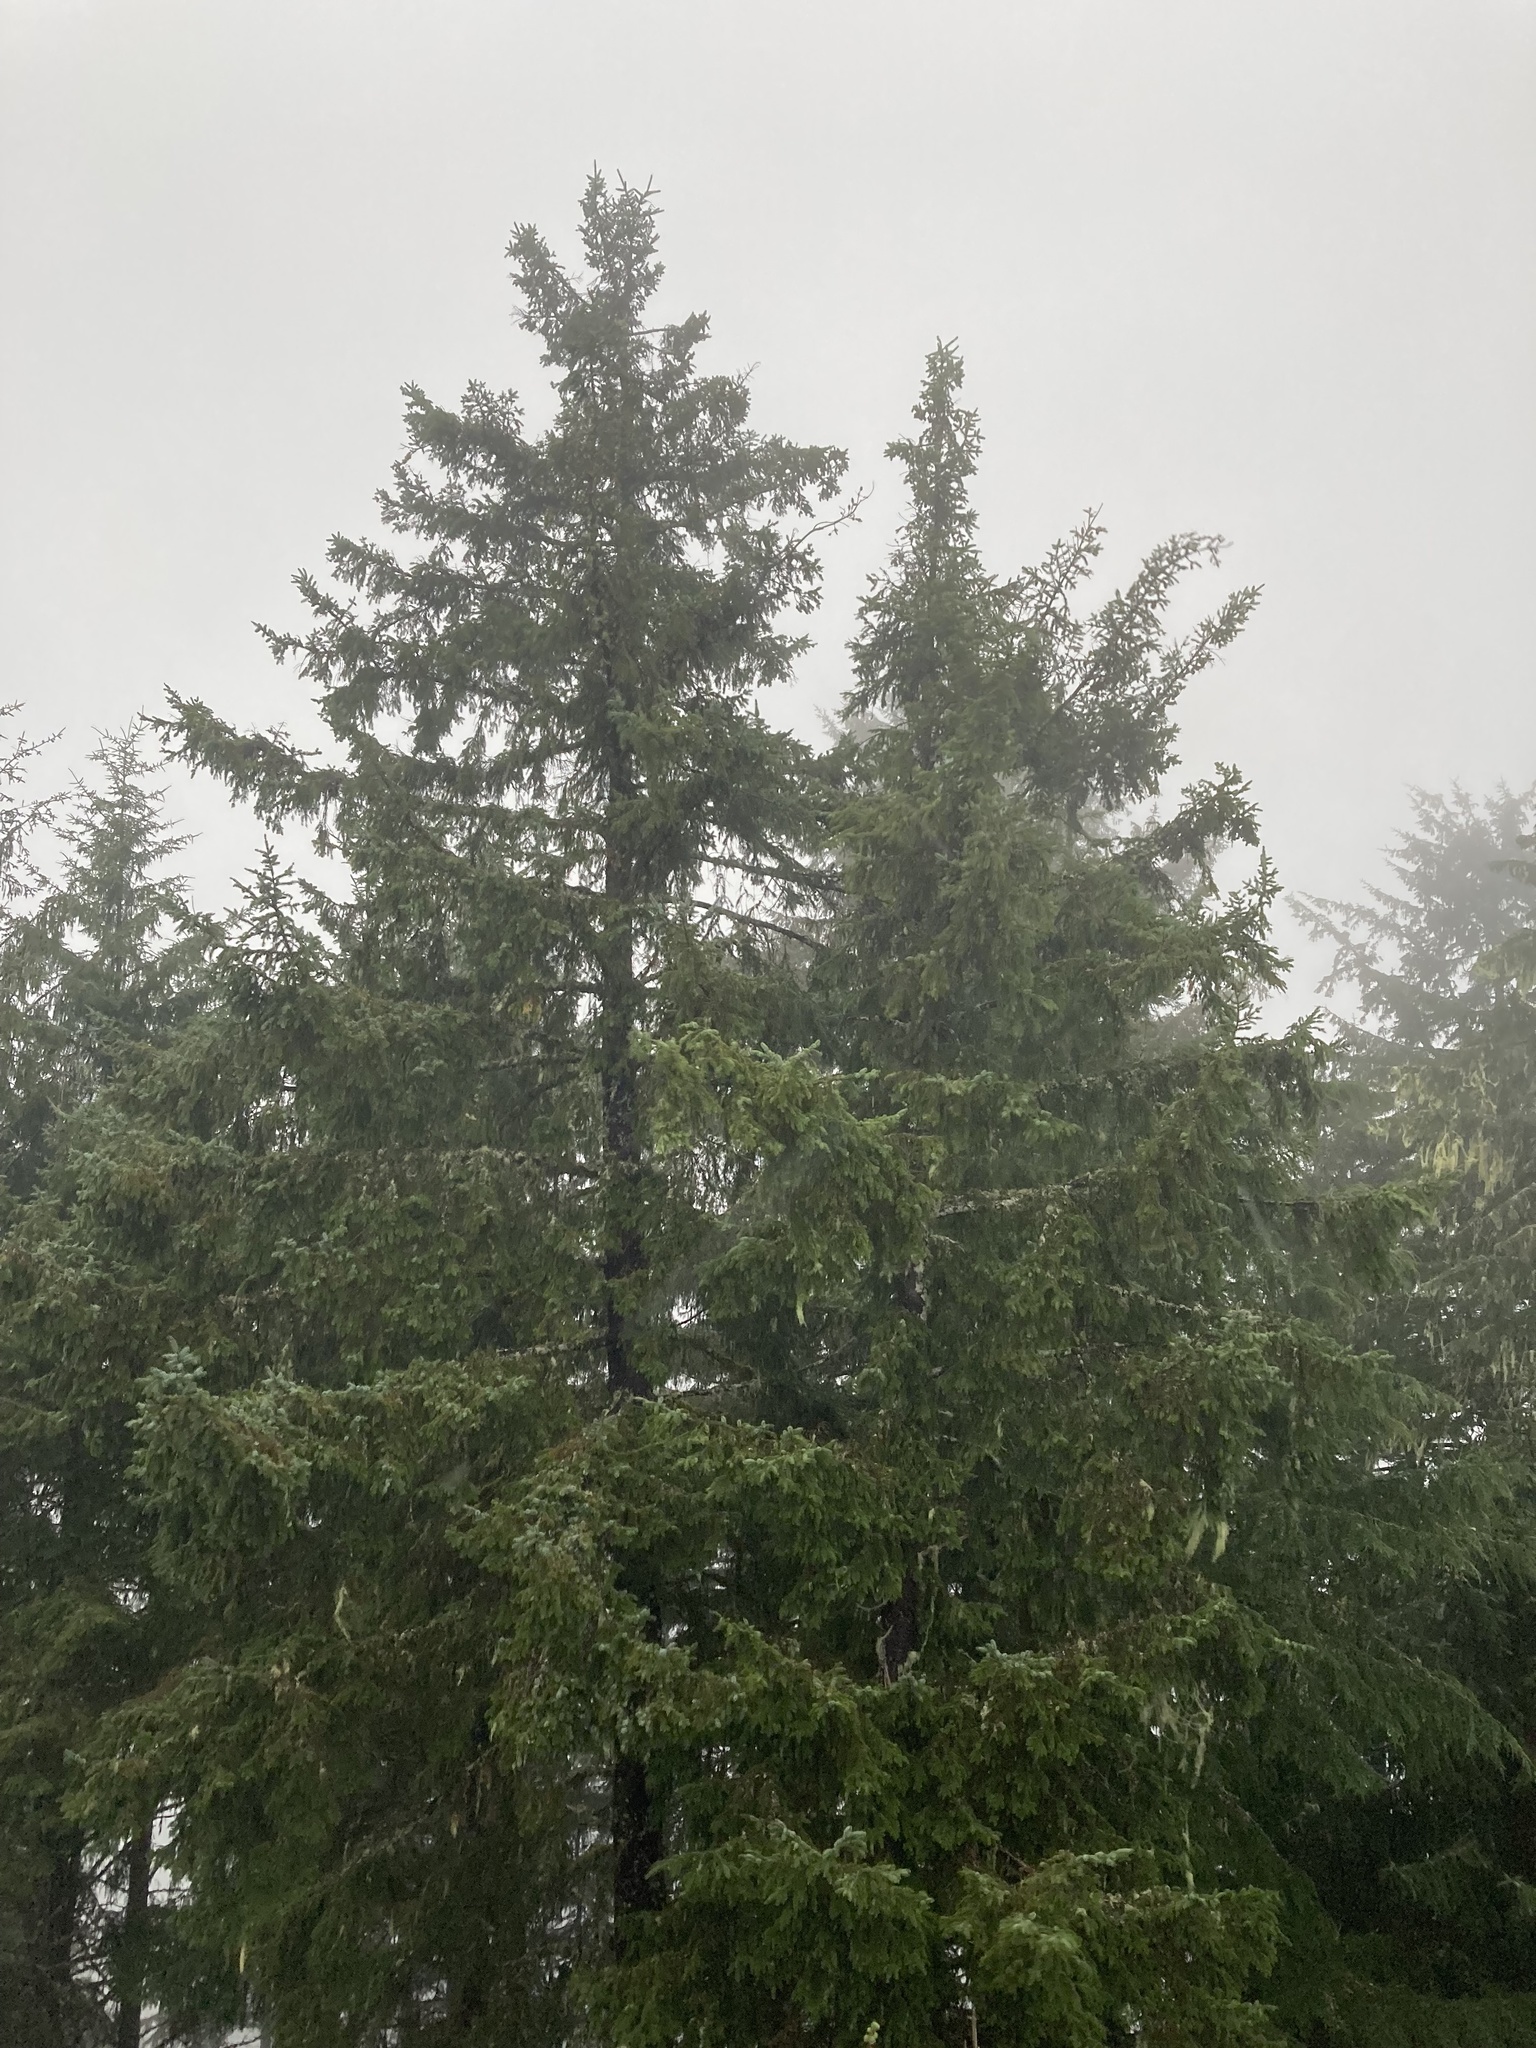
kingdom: Plantae
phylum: Tracheophyta
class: Pinopsida
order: Pinales
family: Pinaceae
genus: Picea
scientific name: Picea sitchensis
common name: Sitka spruce
